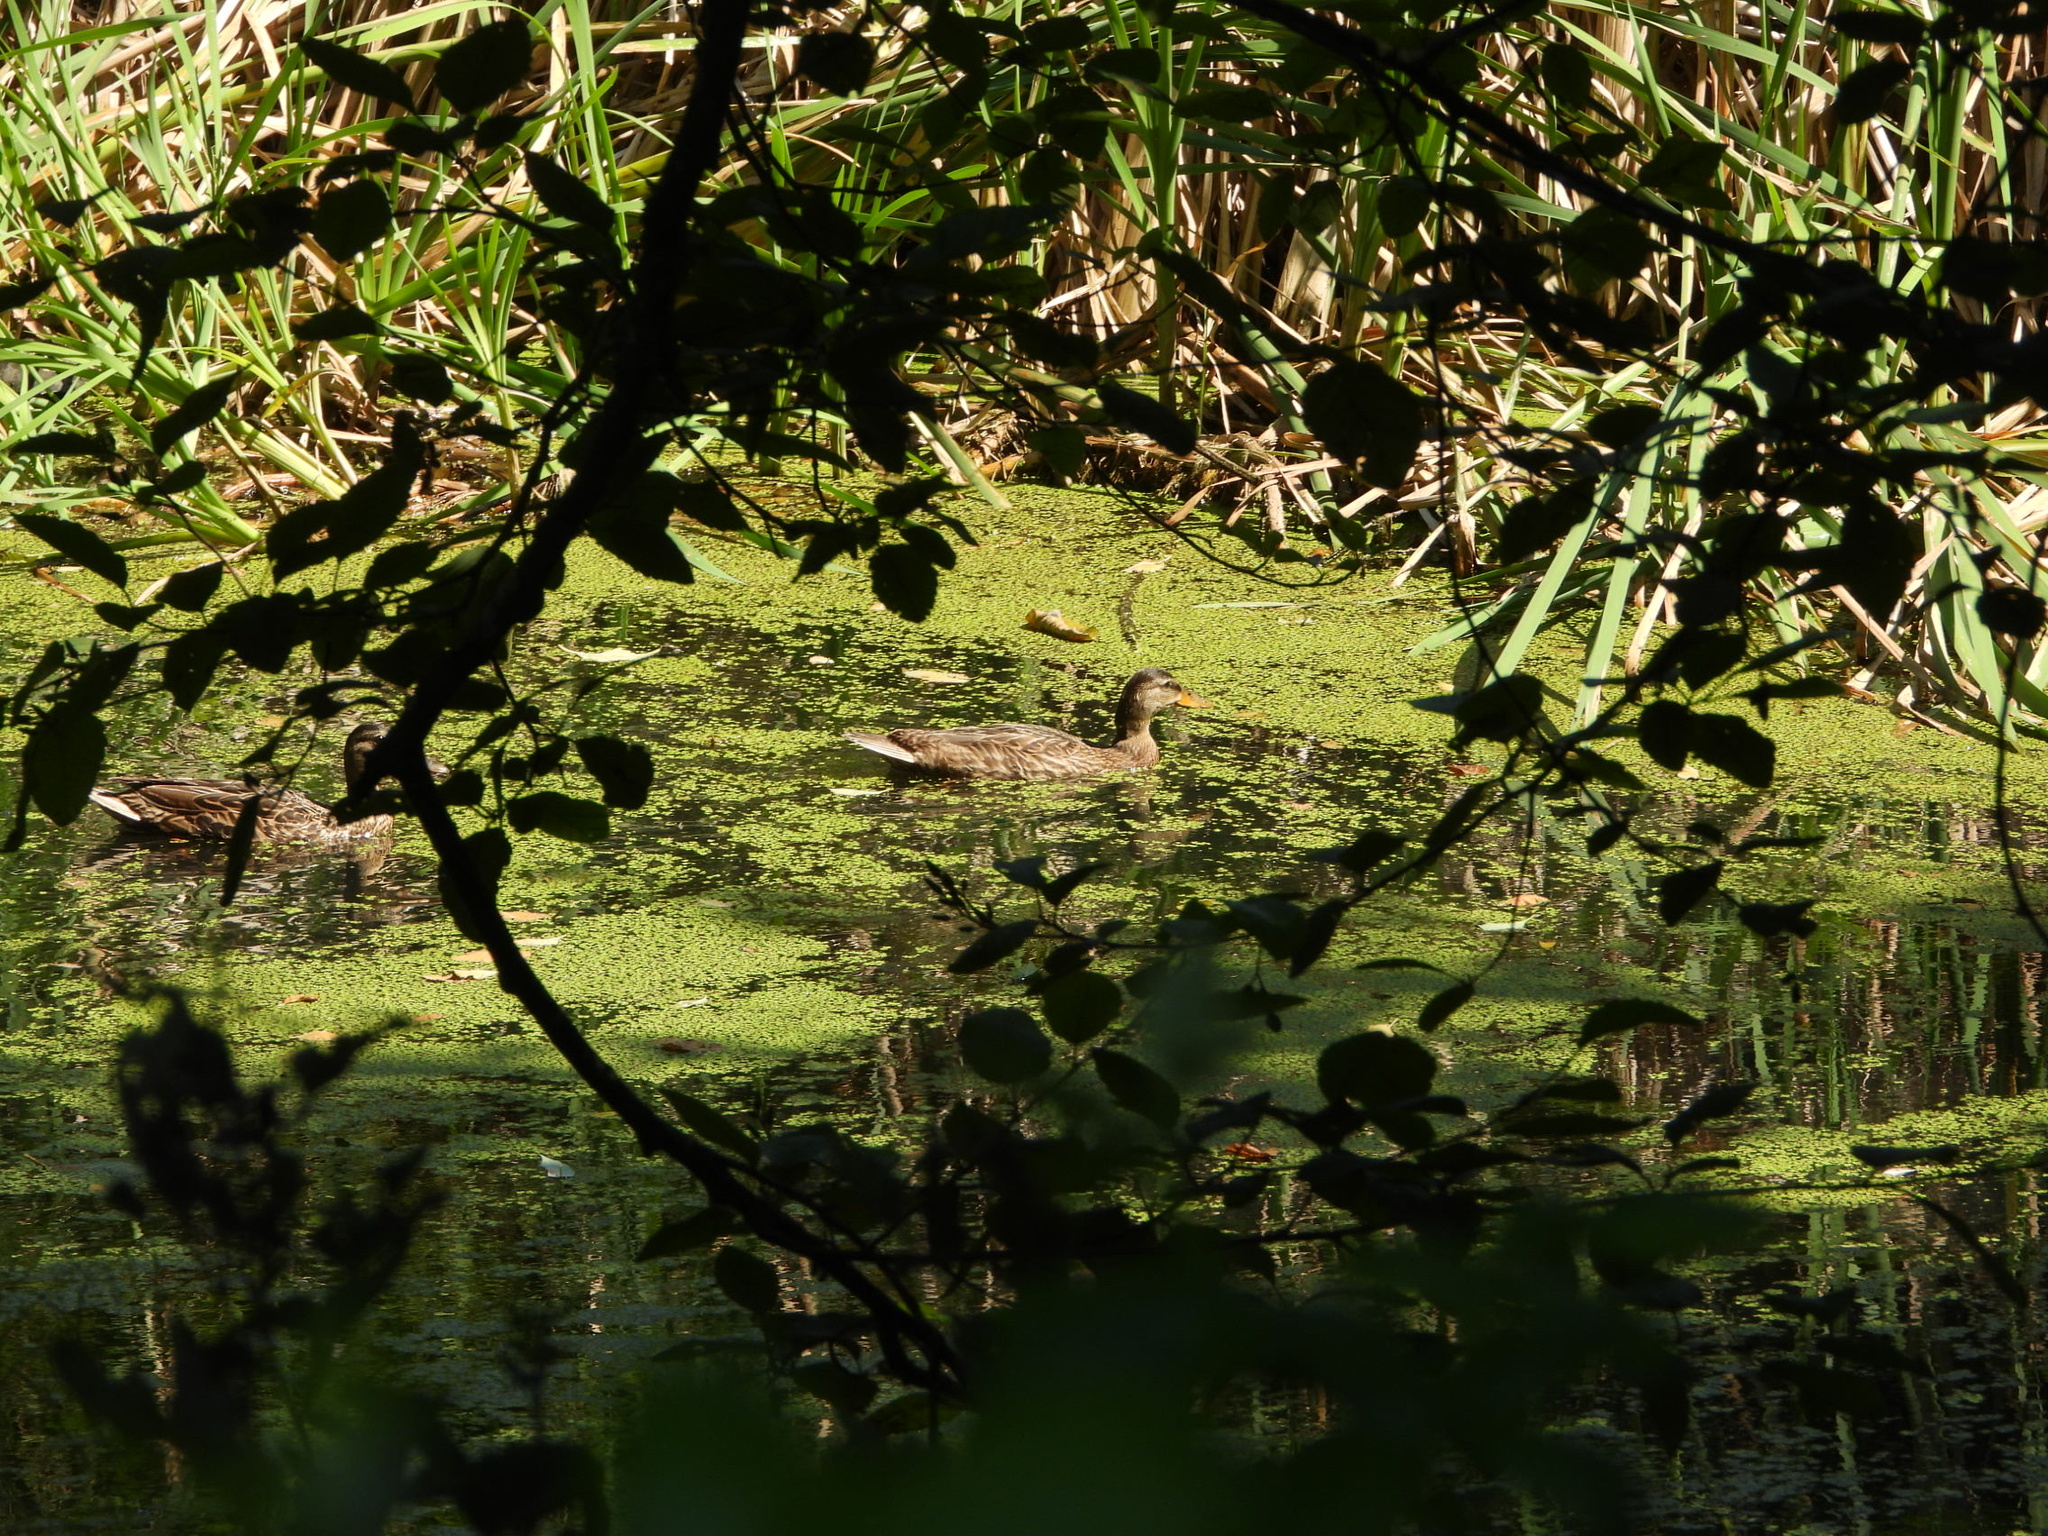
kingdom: Animalia
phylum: Chordata
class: Aves
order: Anseriformes
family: Anatidae
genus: Anas
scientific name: Anas platyrhynchos
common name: Mallard
